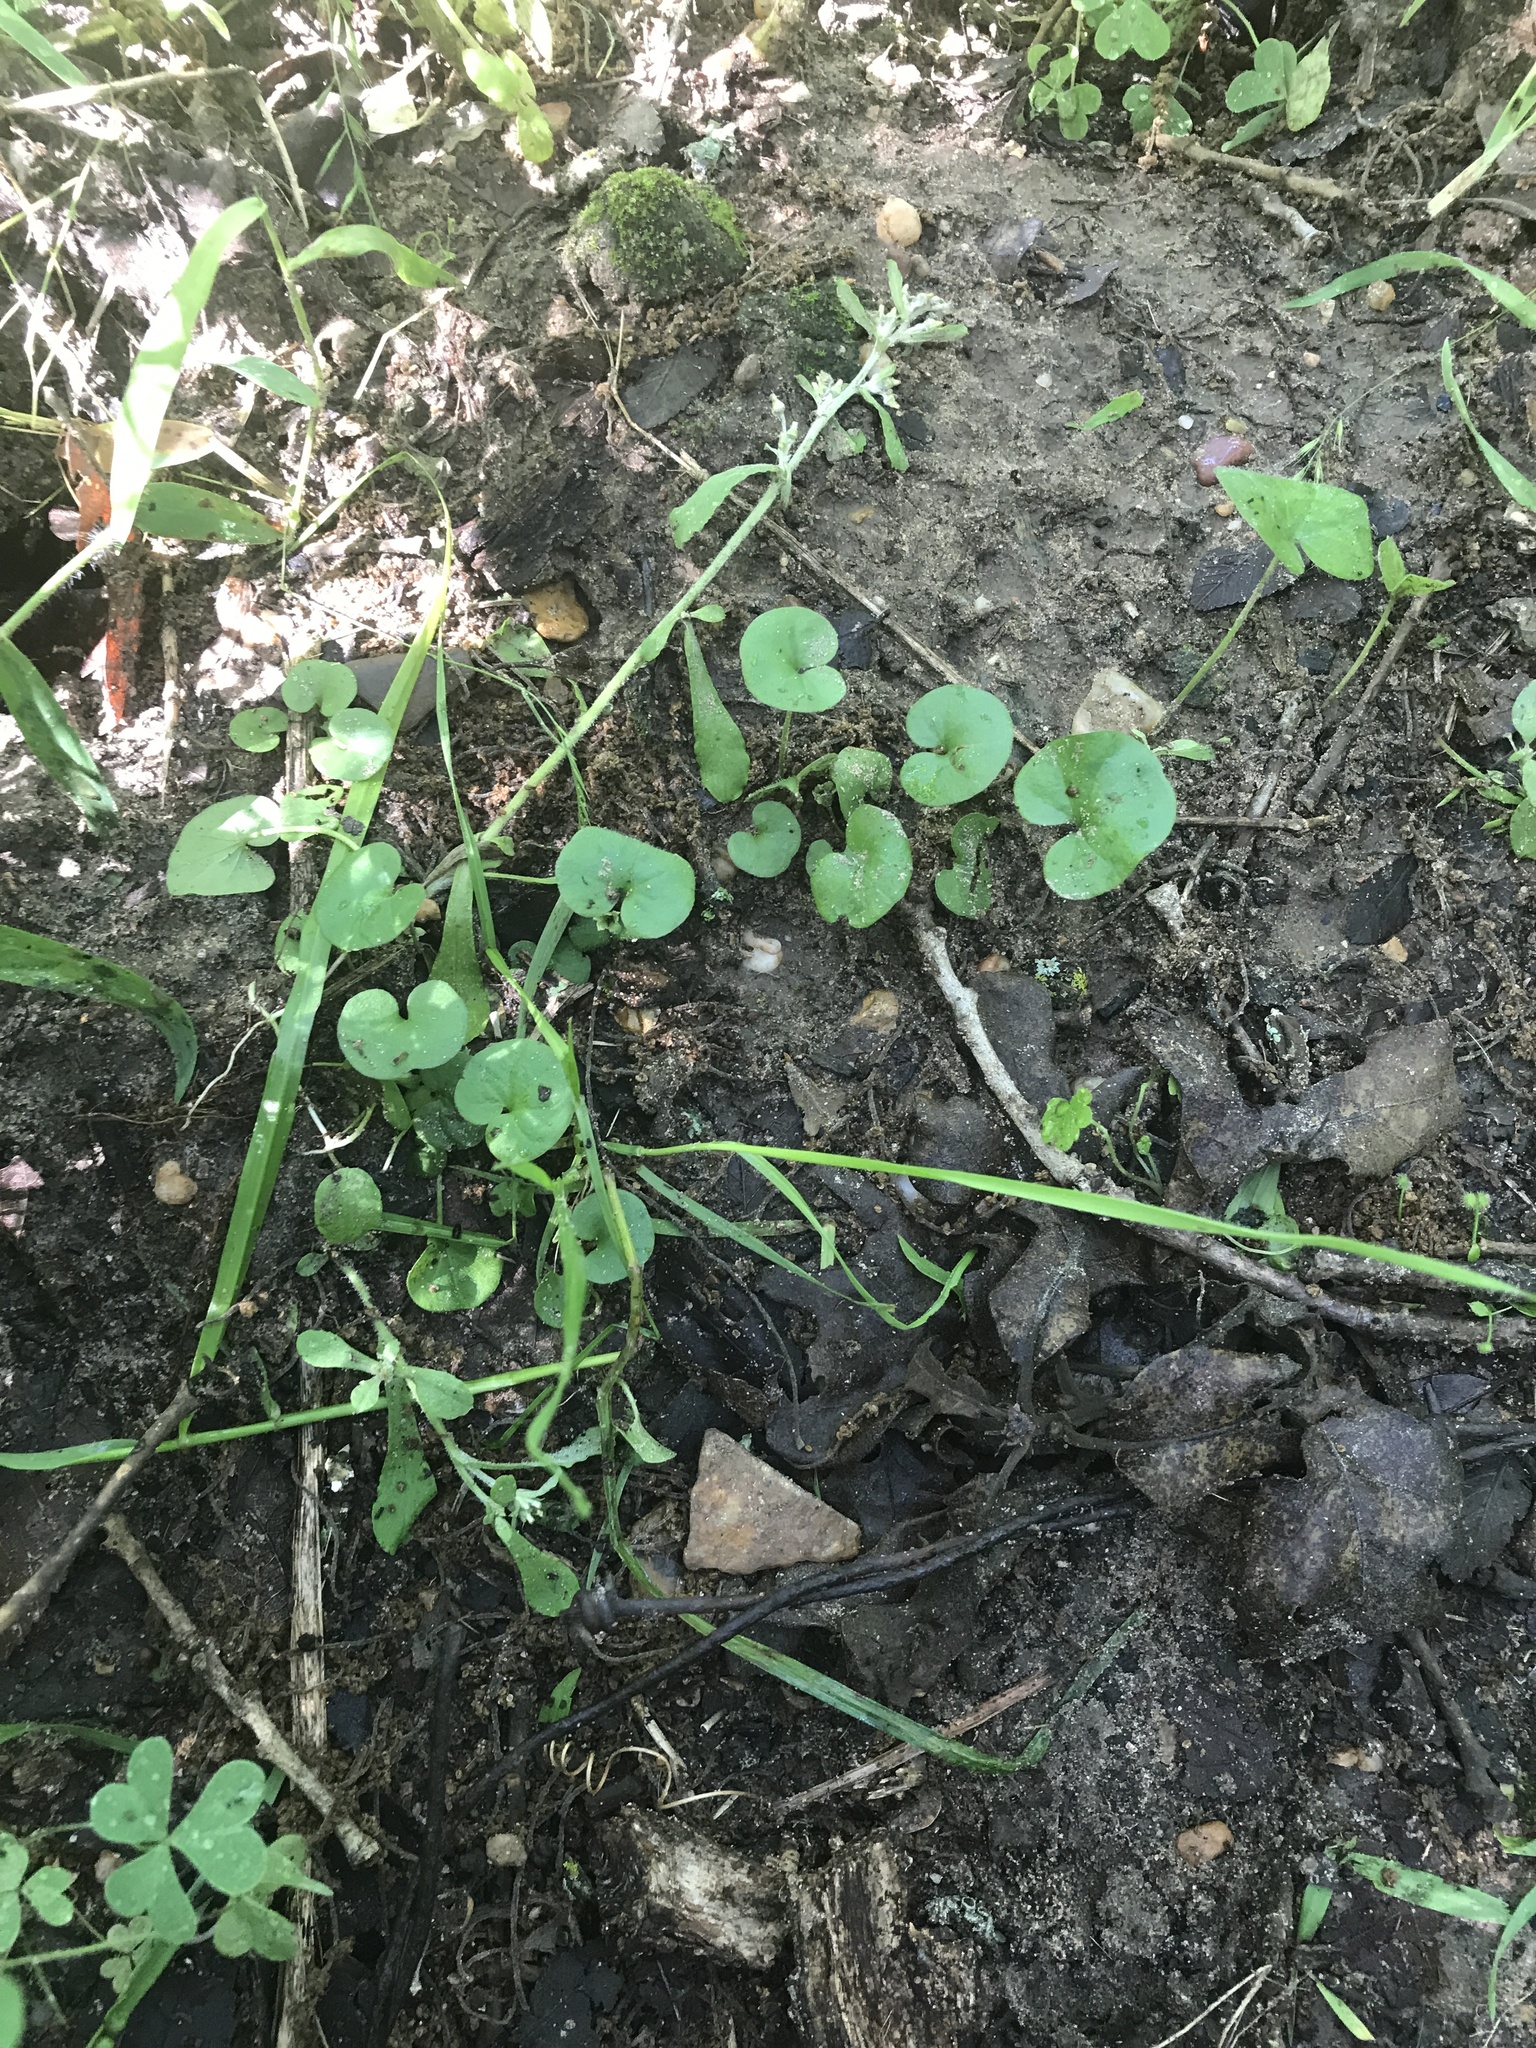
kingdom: Plantae
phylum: Tracheophyta
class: Magnoliopsida
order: Solanales
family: Convolvulaceae
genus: Dichondra
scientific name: Dichondra carolinensis
